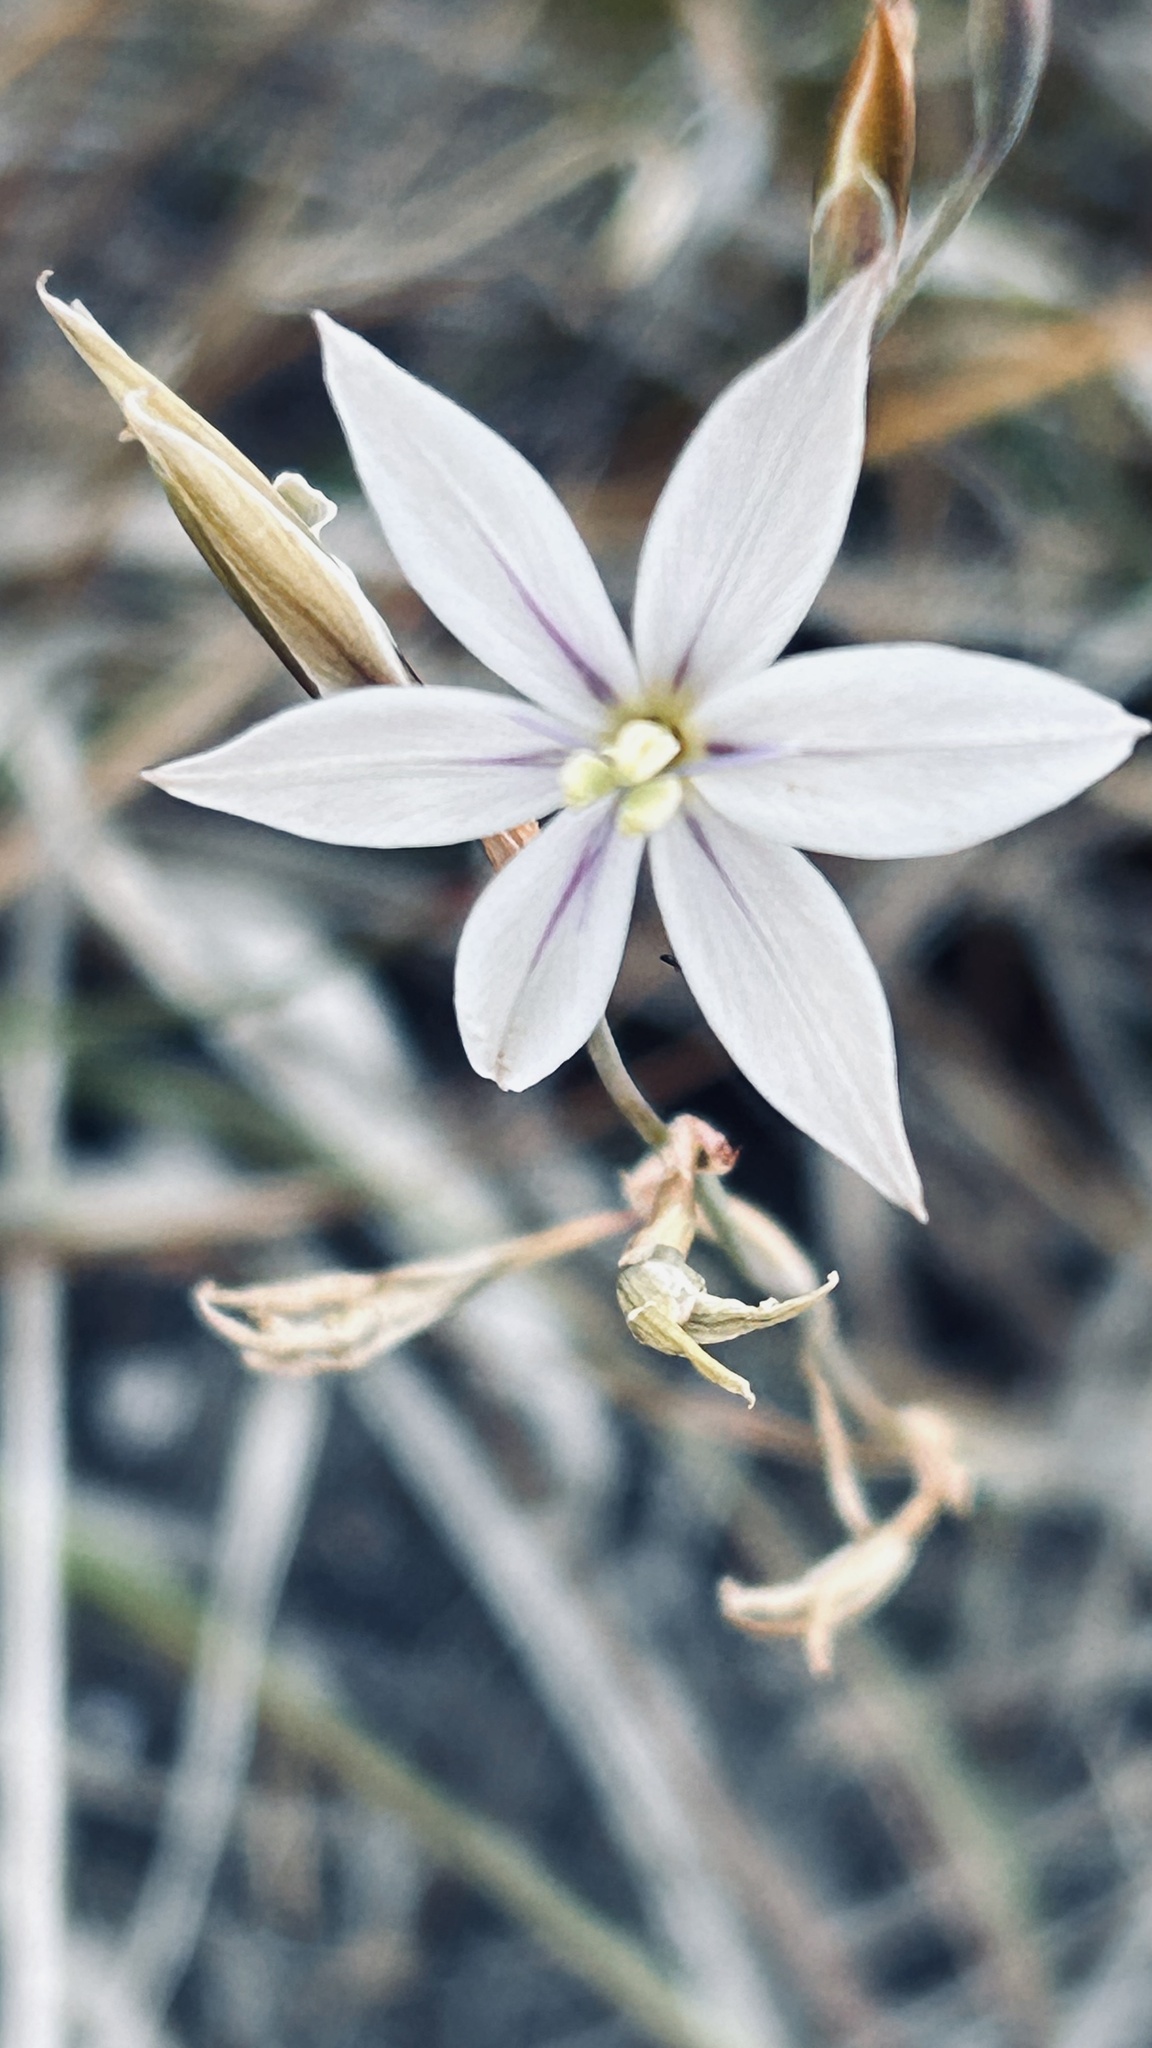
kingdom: Plantae
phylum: Tracheophyta
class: Liliopsida
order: Asparagales
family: Iridaceae
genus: Gladiolus
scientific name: Gladiolus stellatus
